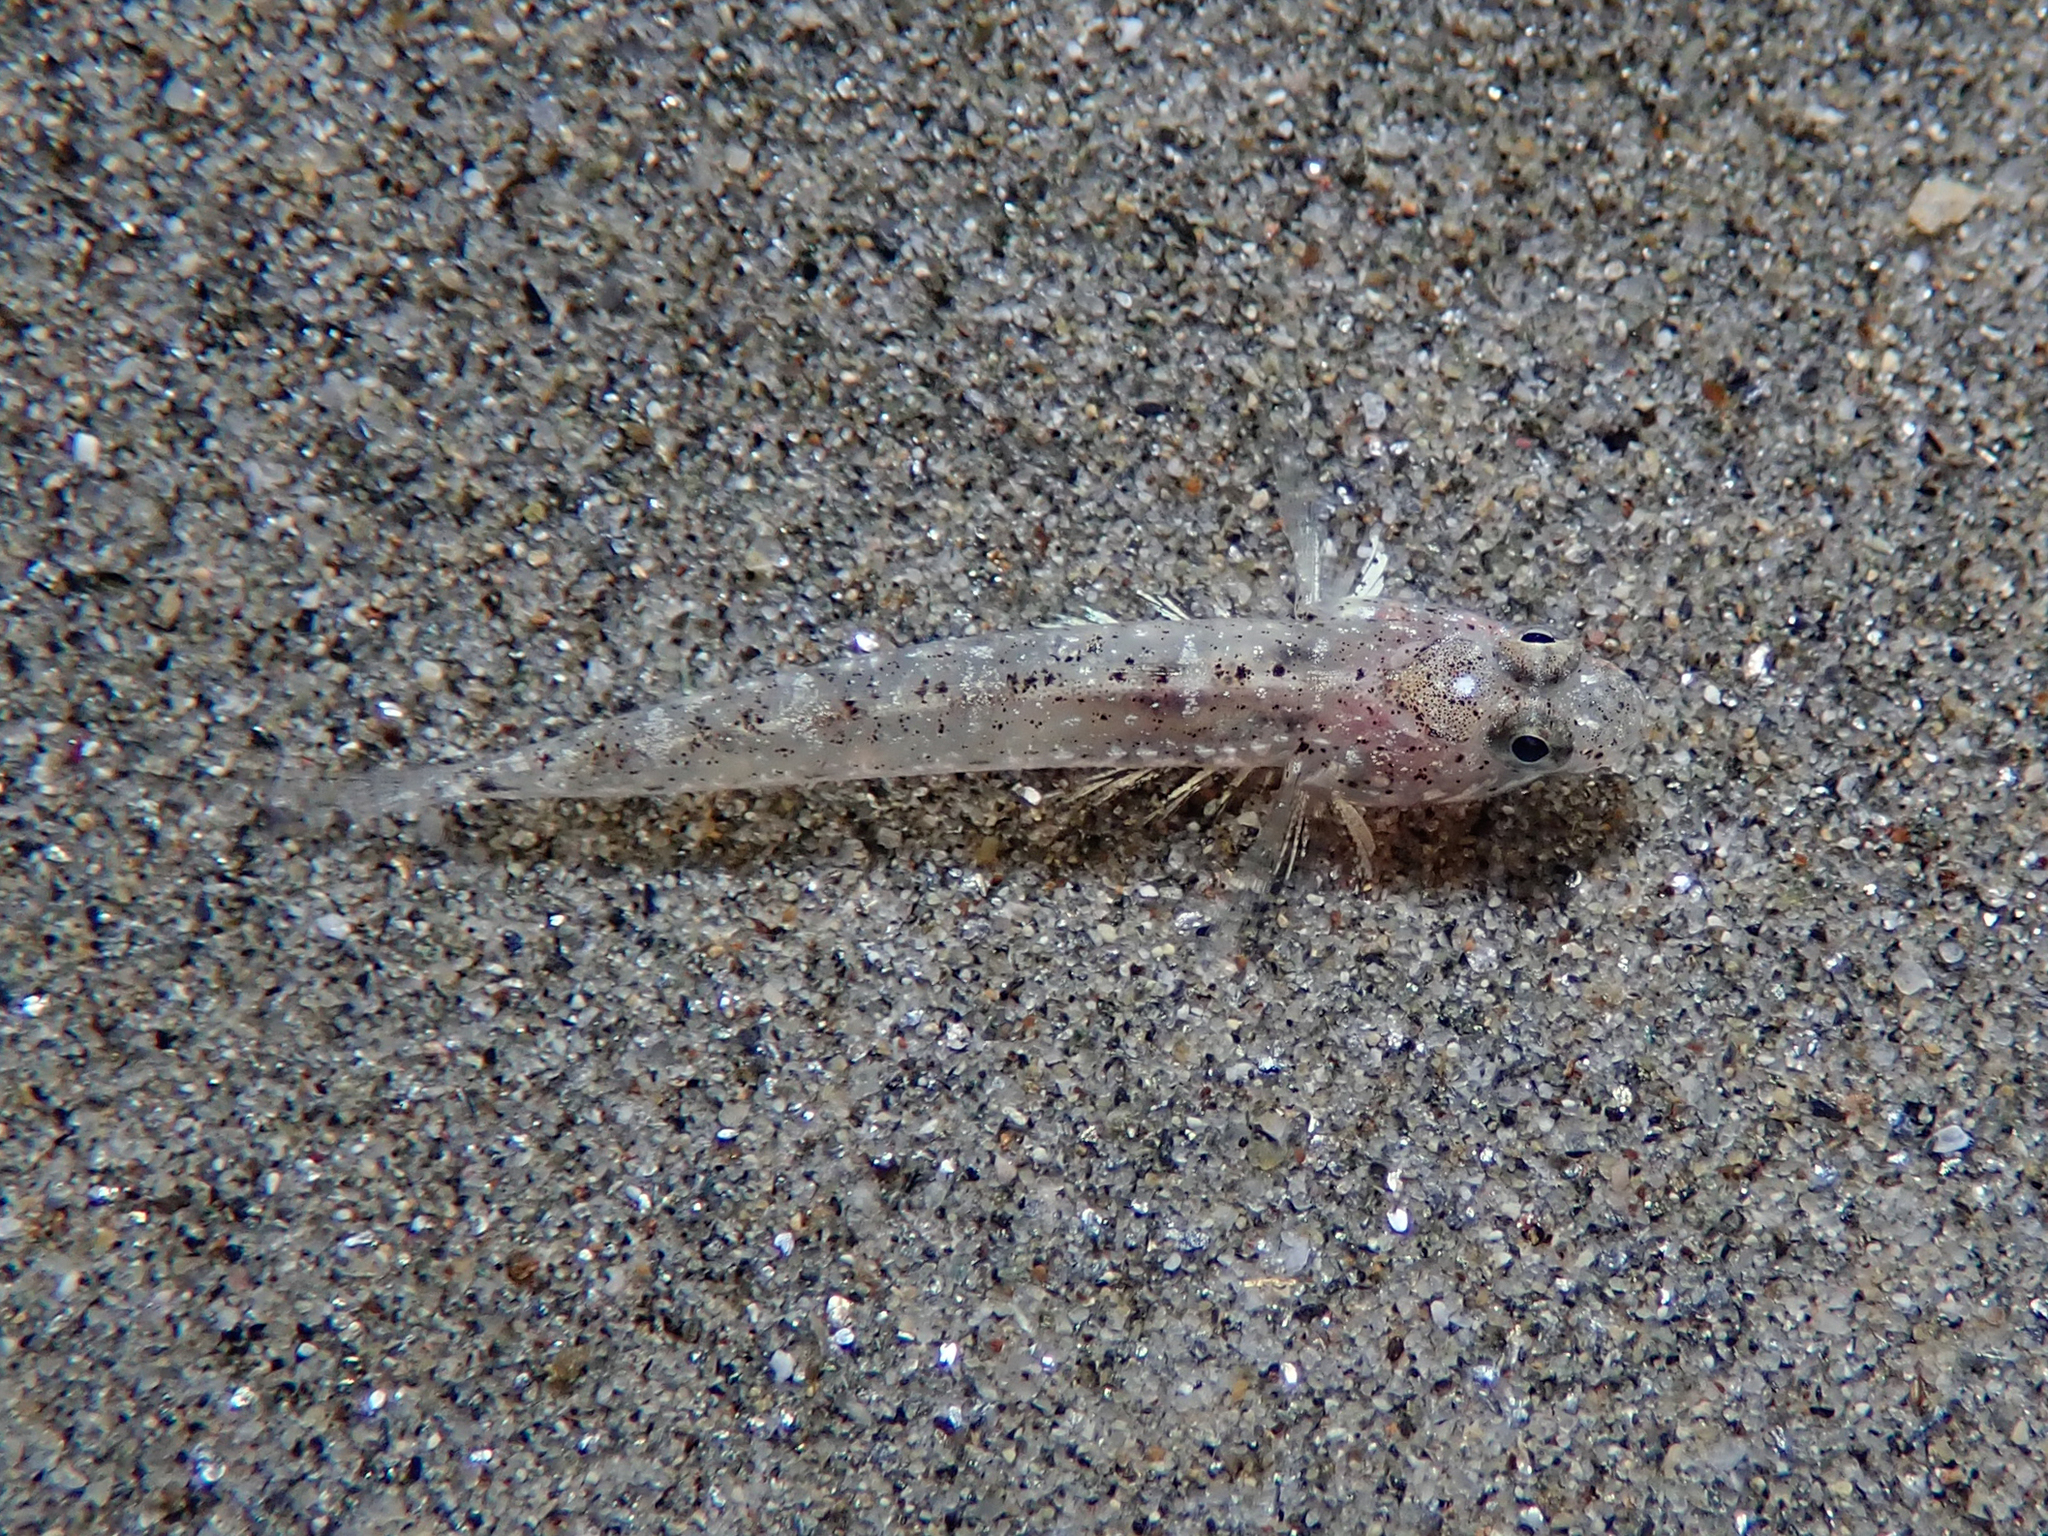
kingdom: Animalia
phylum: Chordata
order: Perciformes
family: Gobiidae
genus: Pomatoschistus
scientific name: Pomatoschistus marmoratus
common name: Marbled goby
